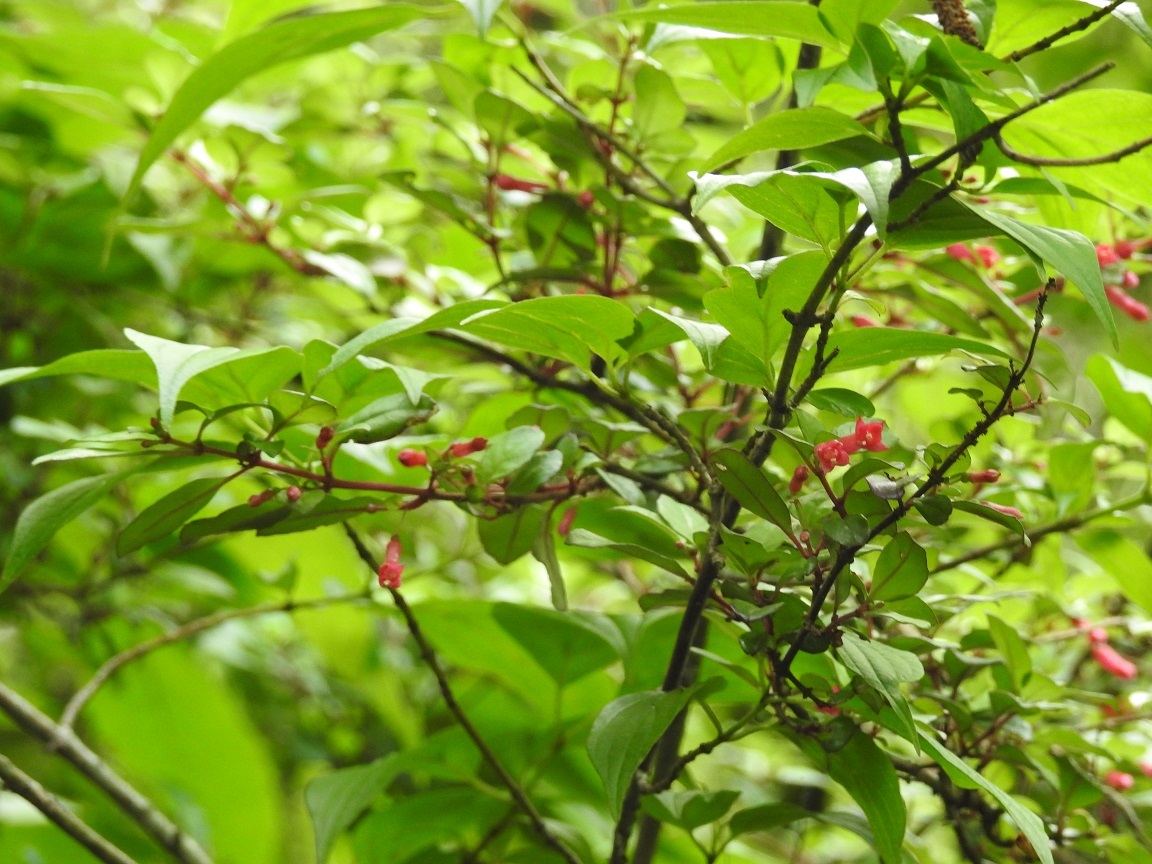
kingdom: Plantae
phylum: Tracheophyta
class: Magnoliopsida
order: Myrtales
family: Onagraceae
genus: Fuchsia
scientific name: Fuchsia thymifolia
